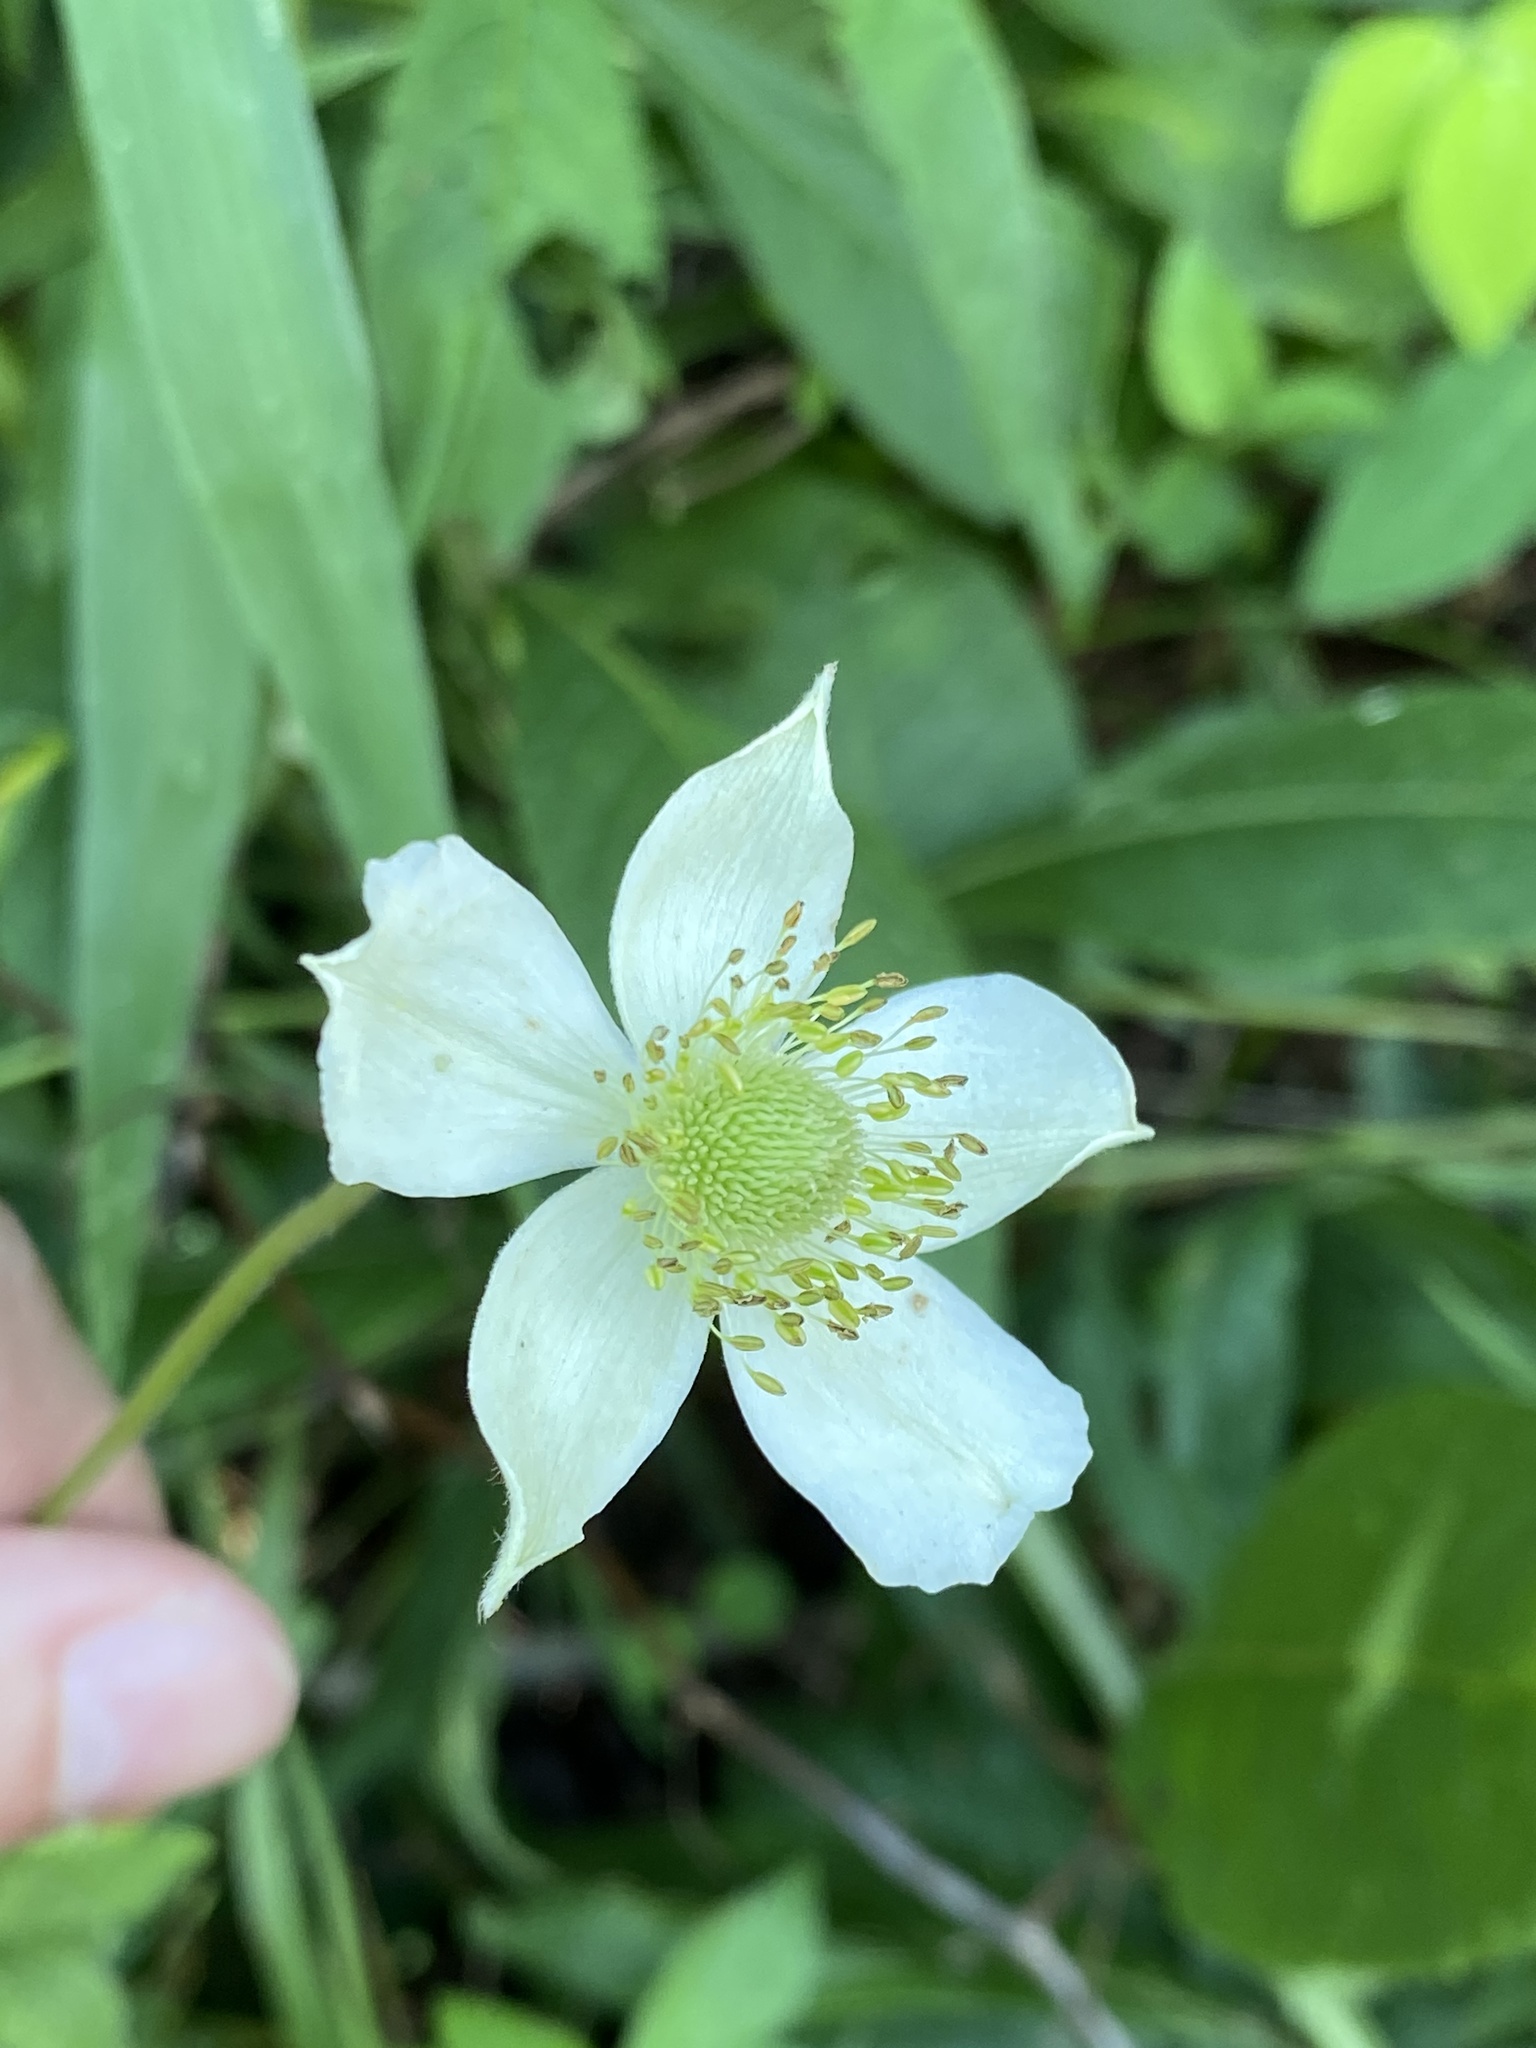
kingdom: Plantae
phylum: Tracheophyta
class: Magnoliopsida
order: Ranunculales
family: Ranunculaceae
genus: Anemone
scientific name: Anemone virginiana
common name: Tall anemone
